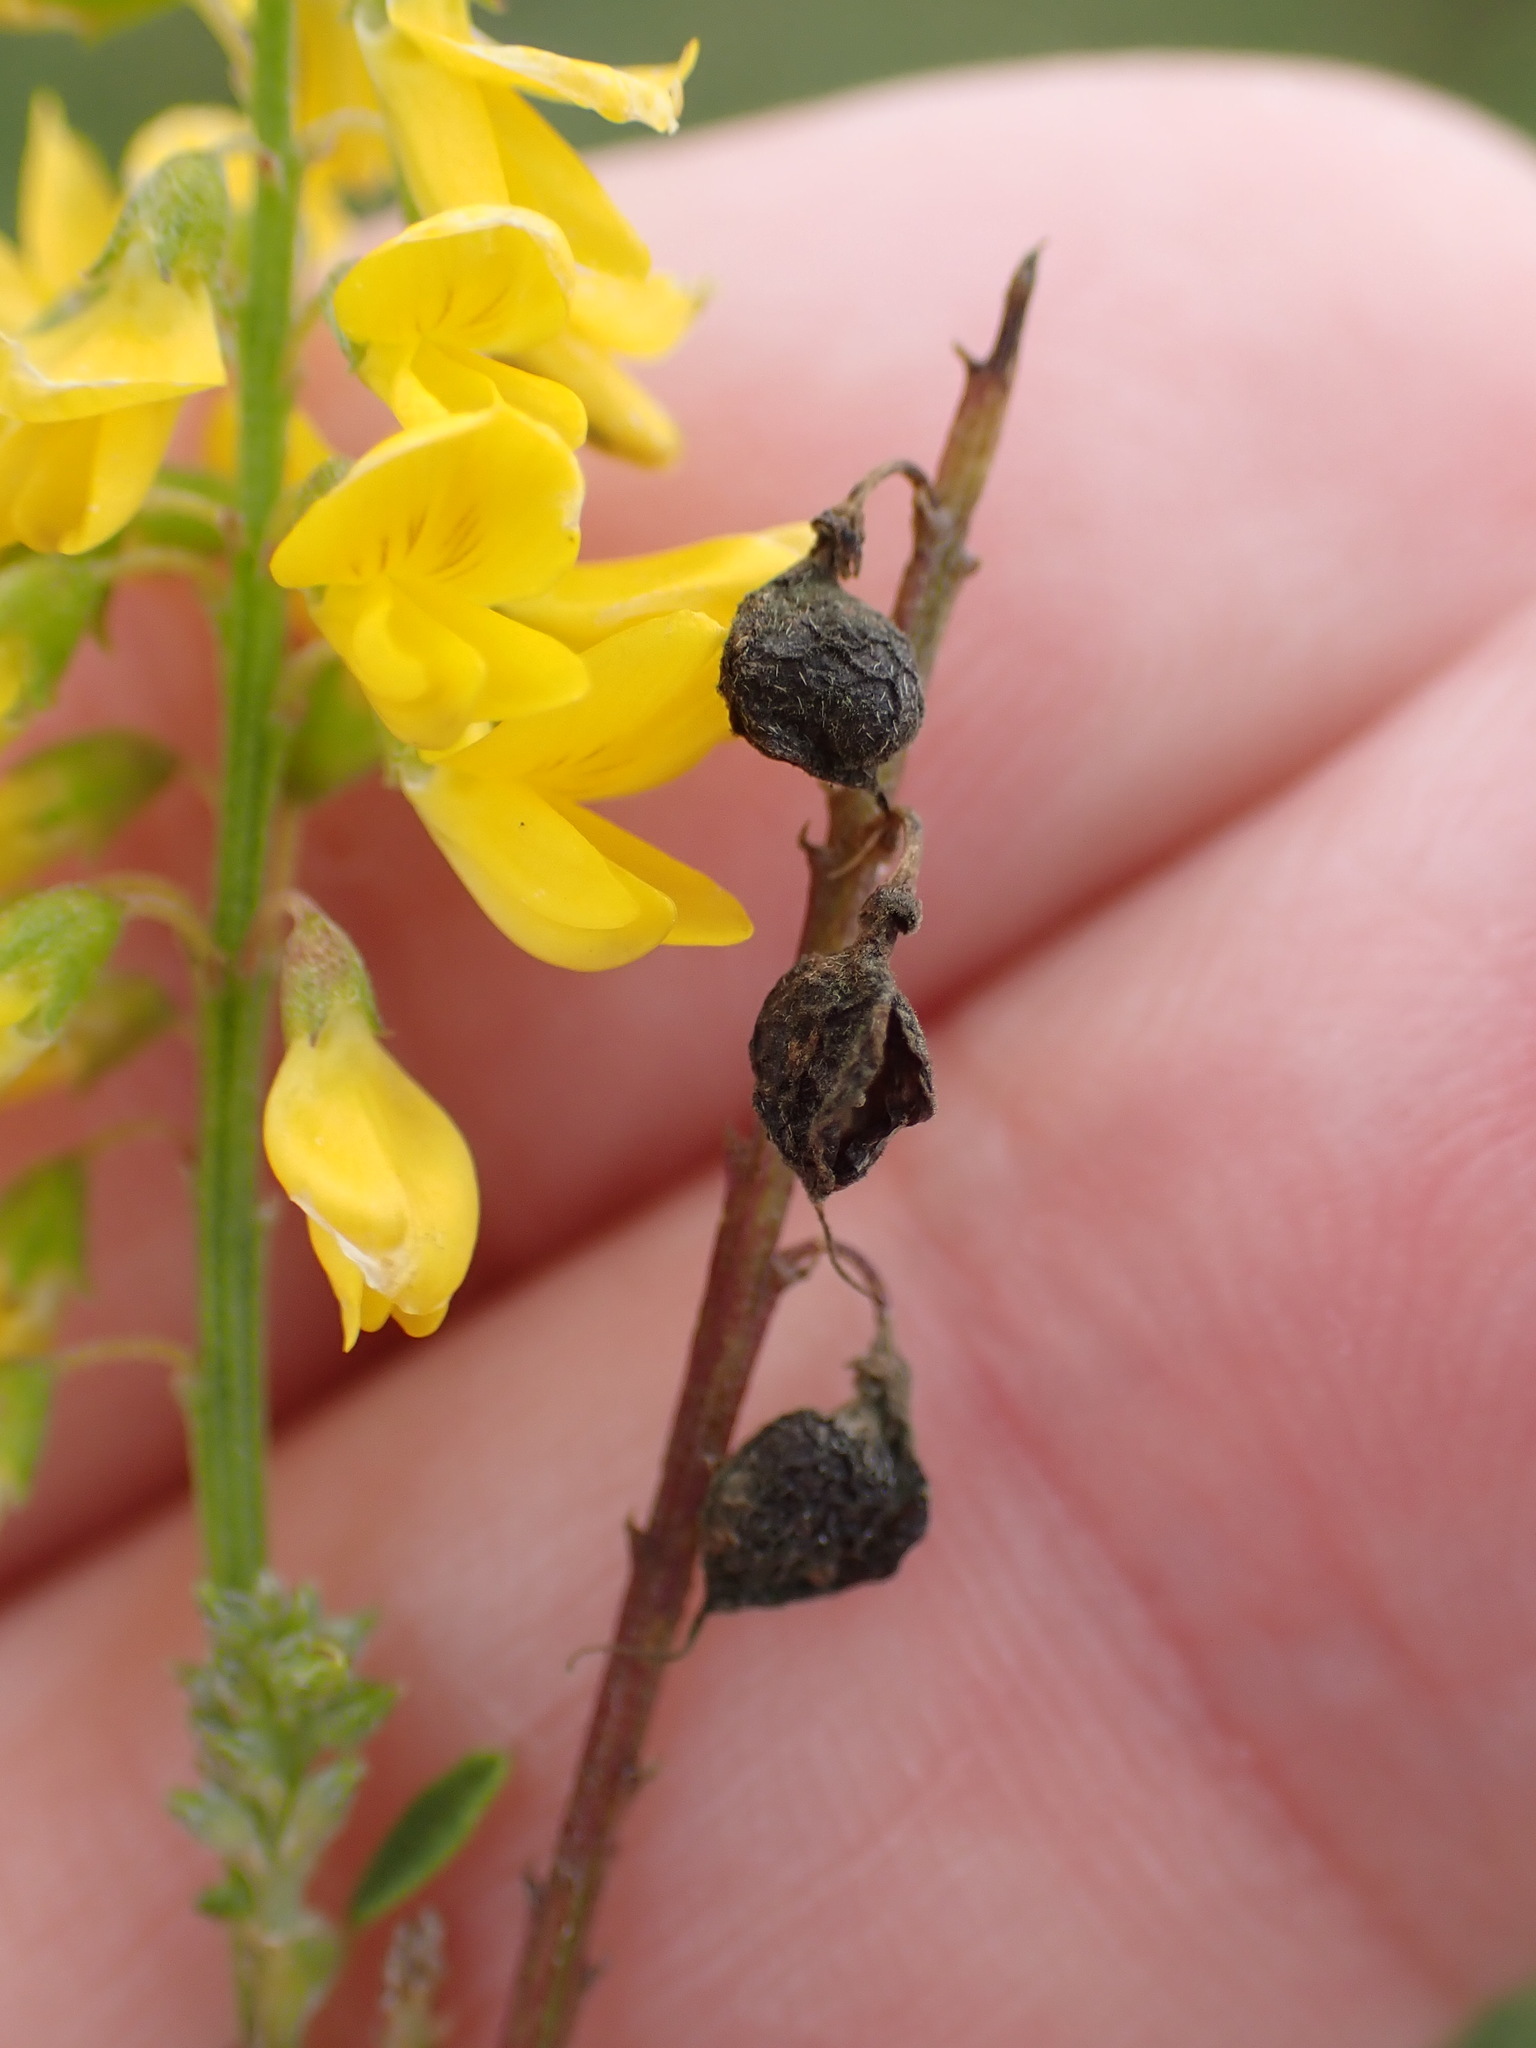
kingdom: Plantae
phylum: Tracheophyta
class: Magnoliopsida
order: Fabales
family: Fabaceae
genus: Melilotus
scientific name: Melilotus altissimus
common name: Tall melilot
